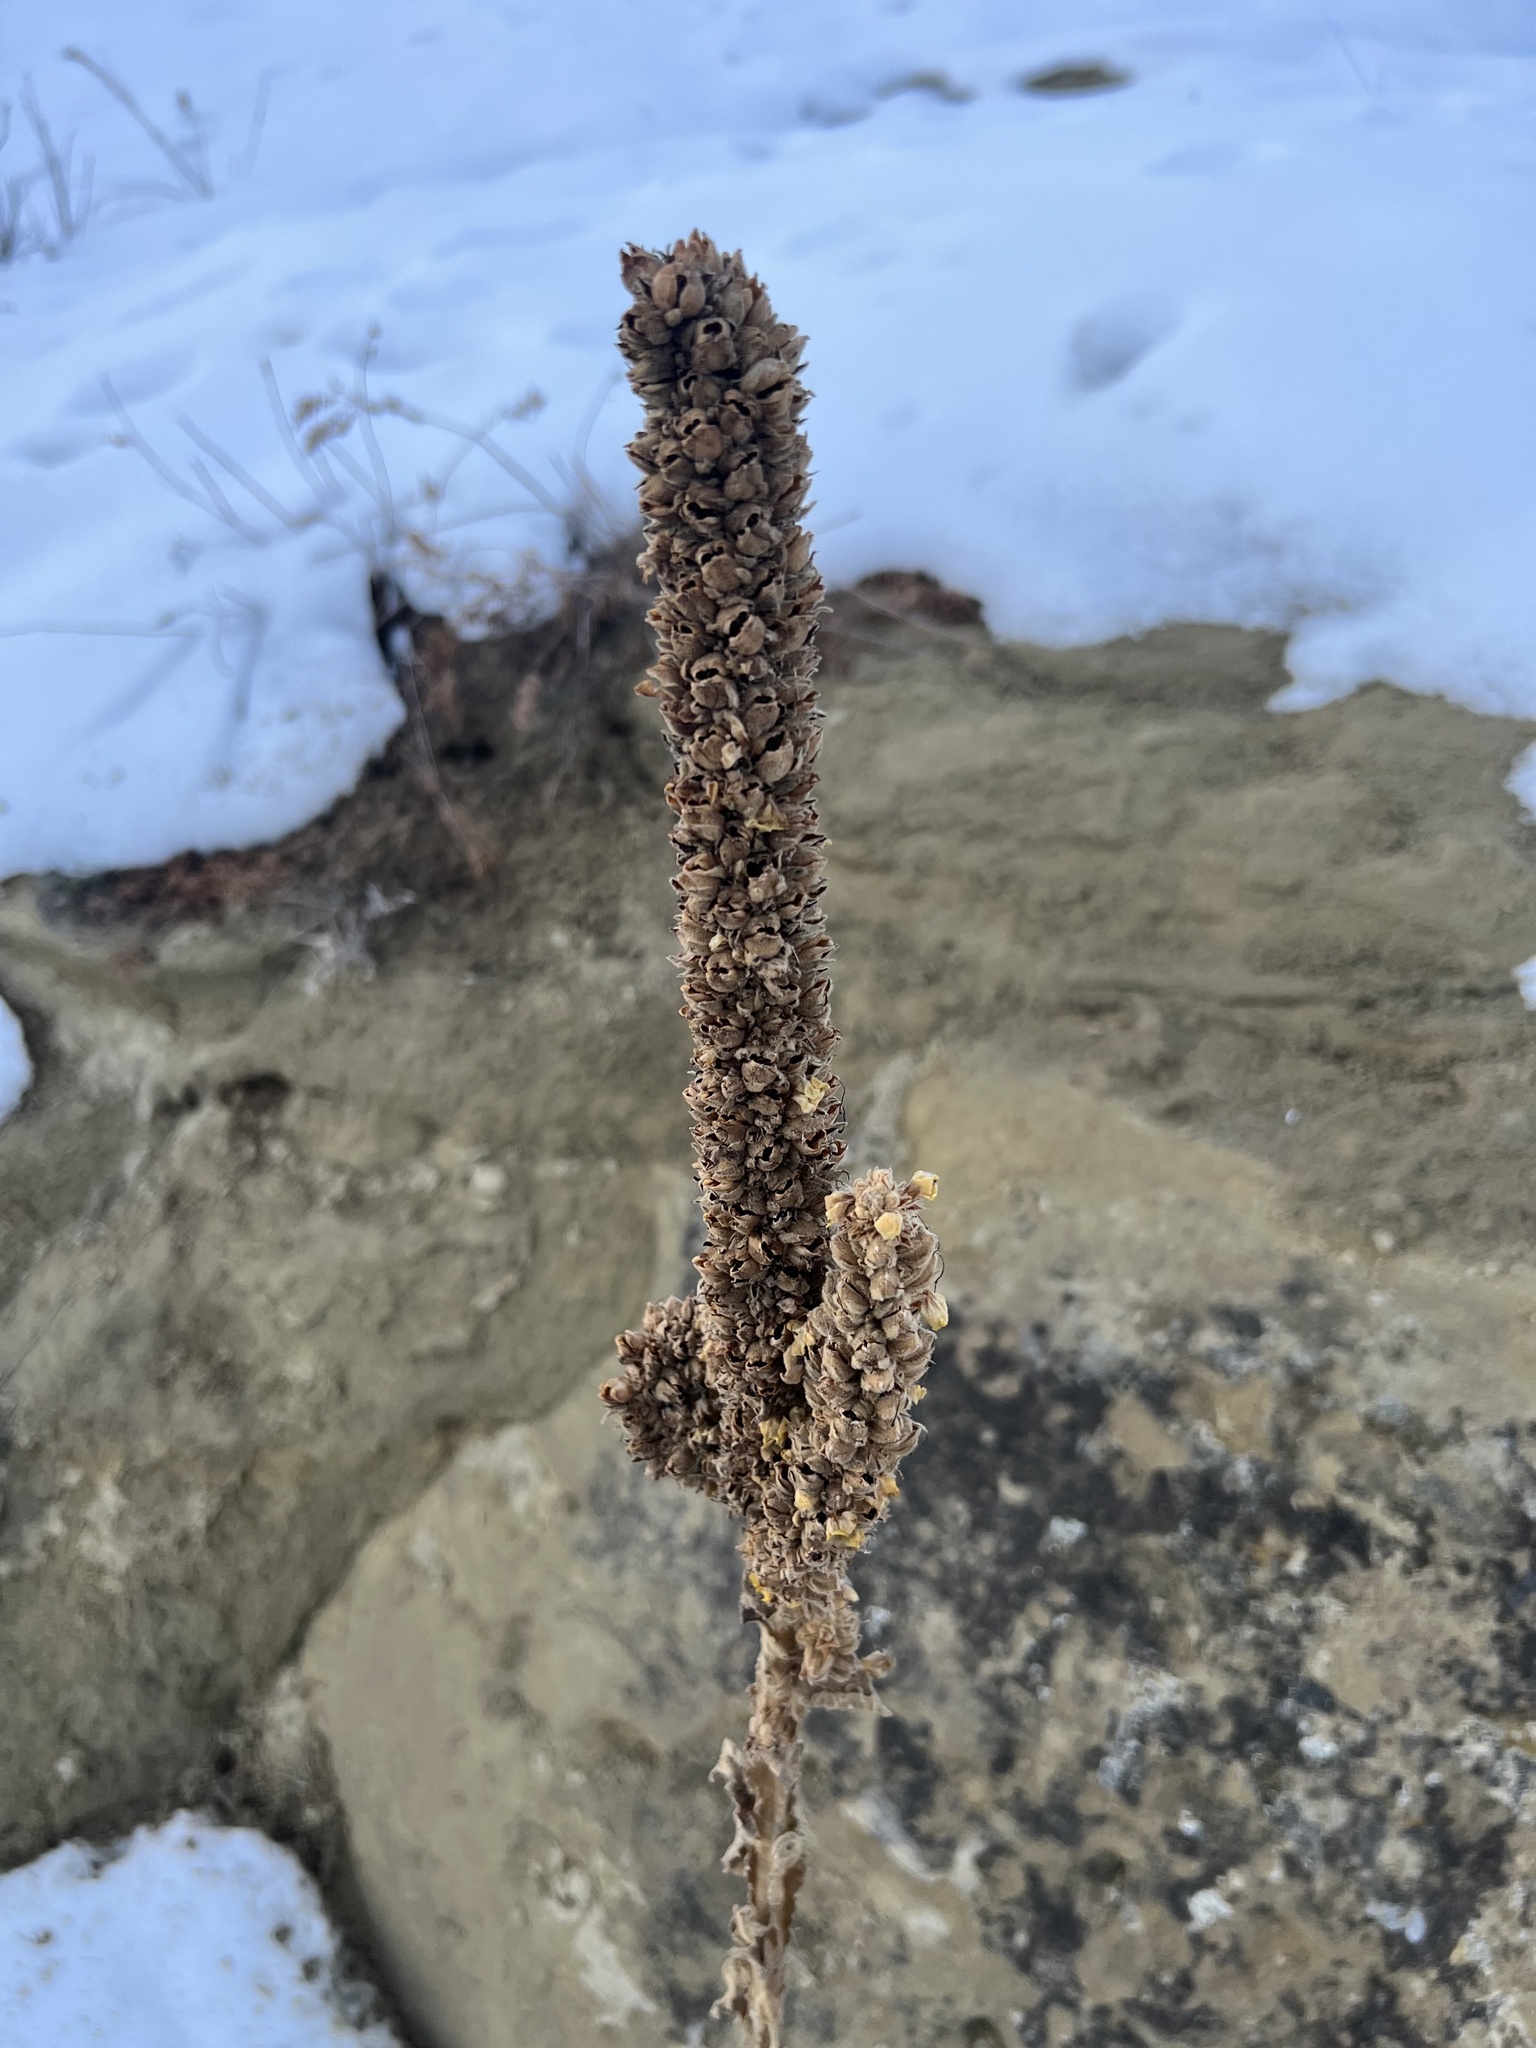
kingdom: Plantae
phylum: Tracheophyta
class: Magnoliopsida
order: Lamiales
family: Scrophulariaceae
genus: Verbascum
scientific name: Verbascum thapsus
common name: Common mullein
